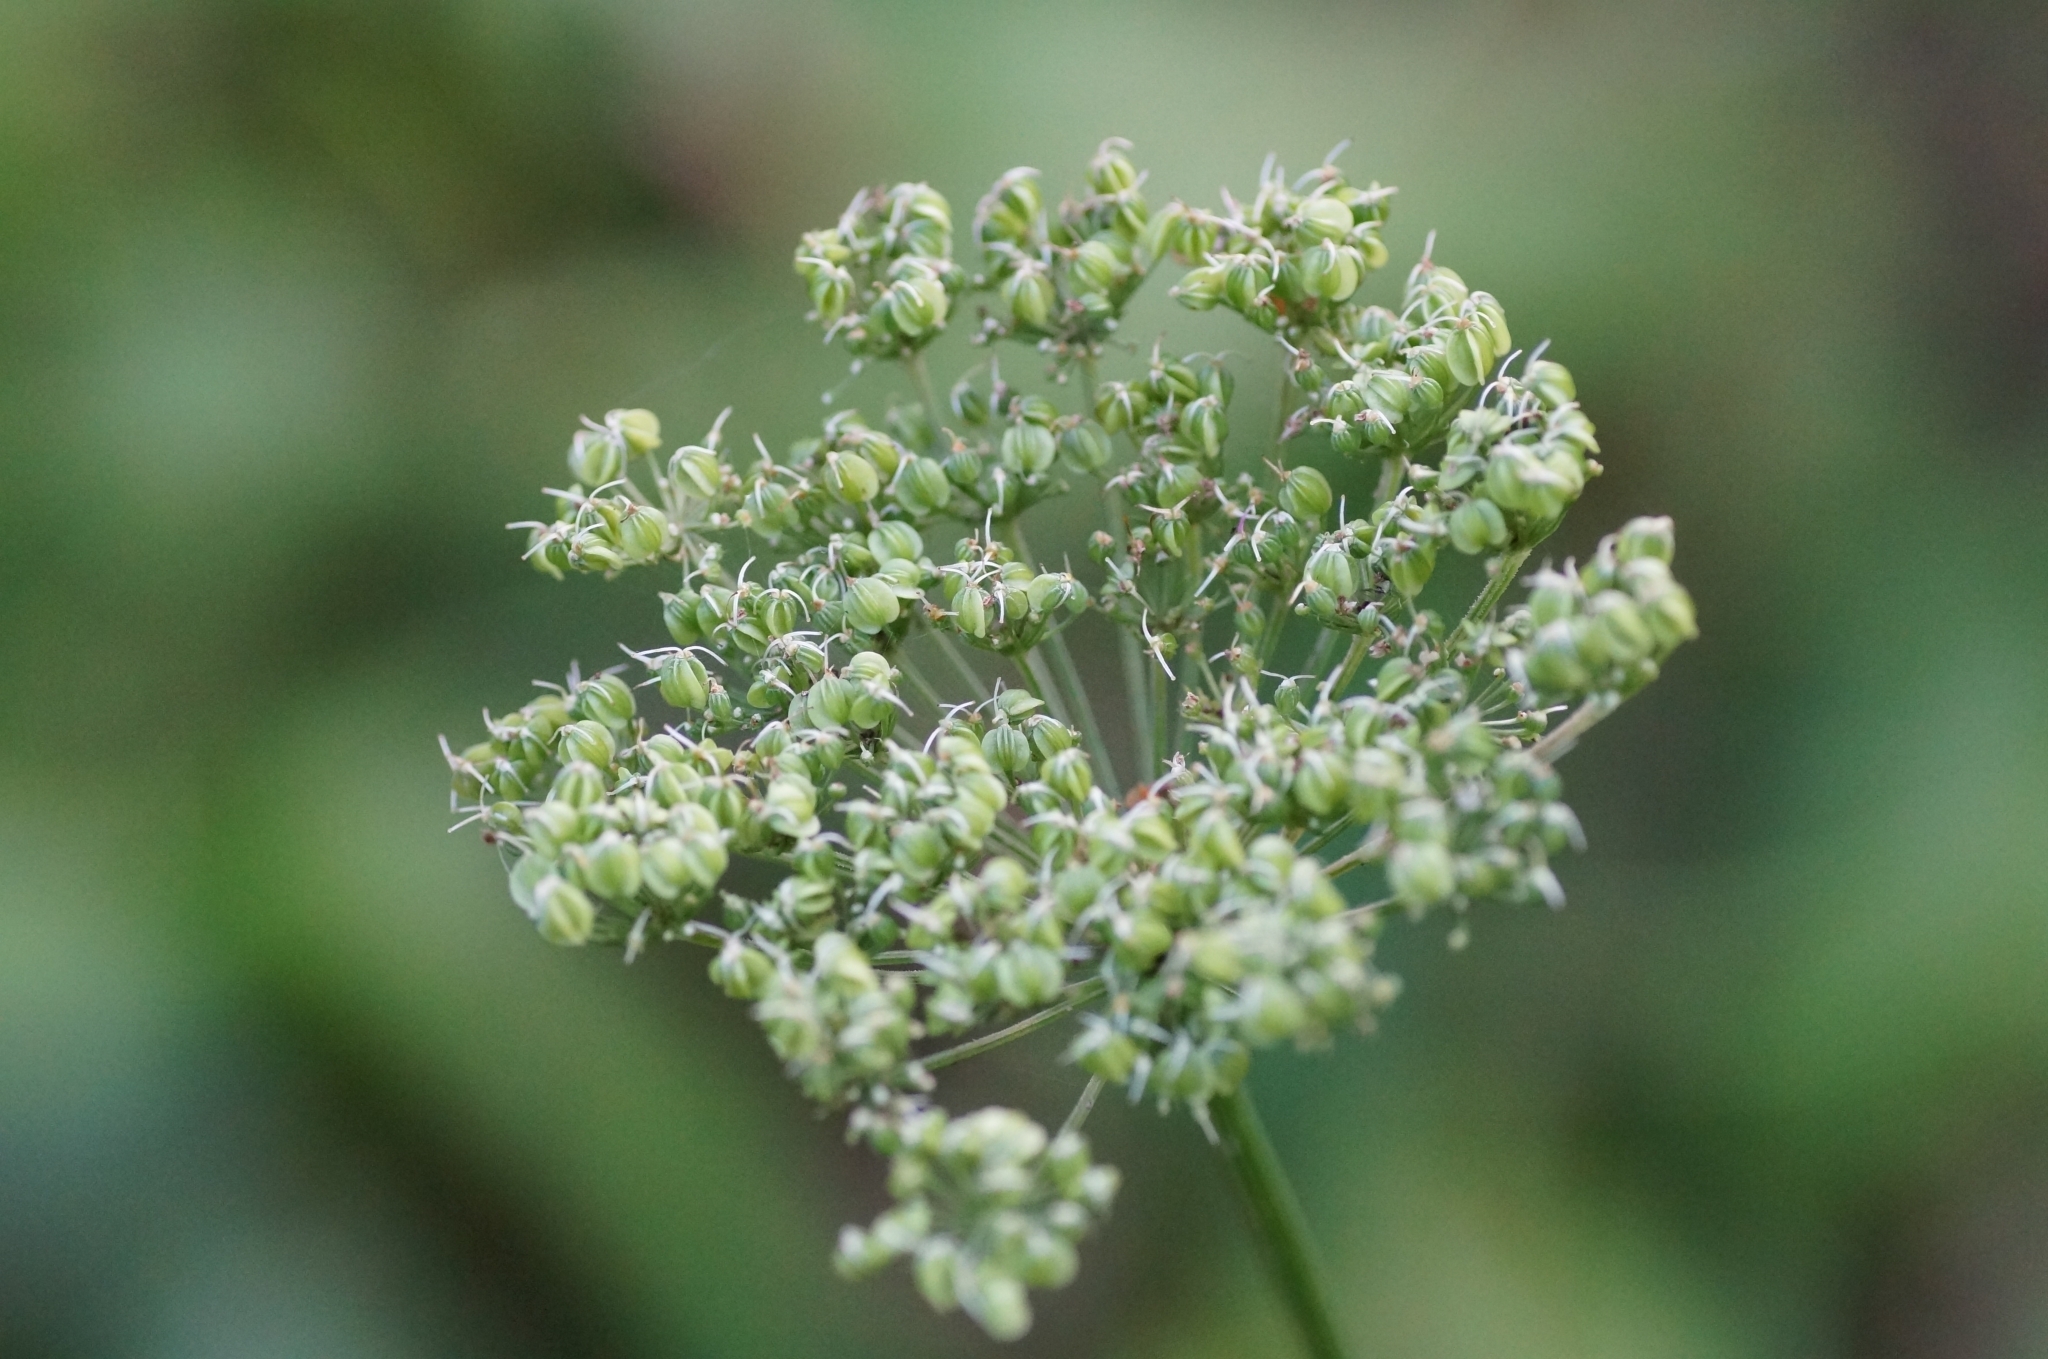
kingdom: Plantae
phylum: Tracheophyta
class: Magnoliopsida
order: Apiales
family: Apiaceae
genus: Selinum
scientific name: Selinum carvifolia
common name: Cambridge milk-parsley
